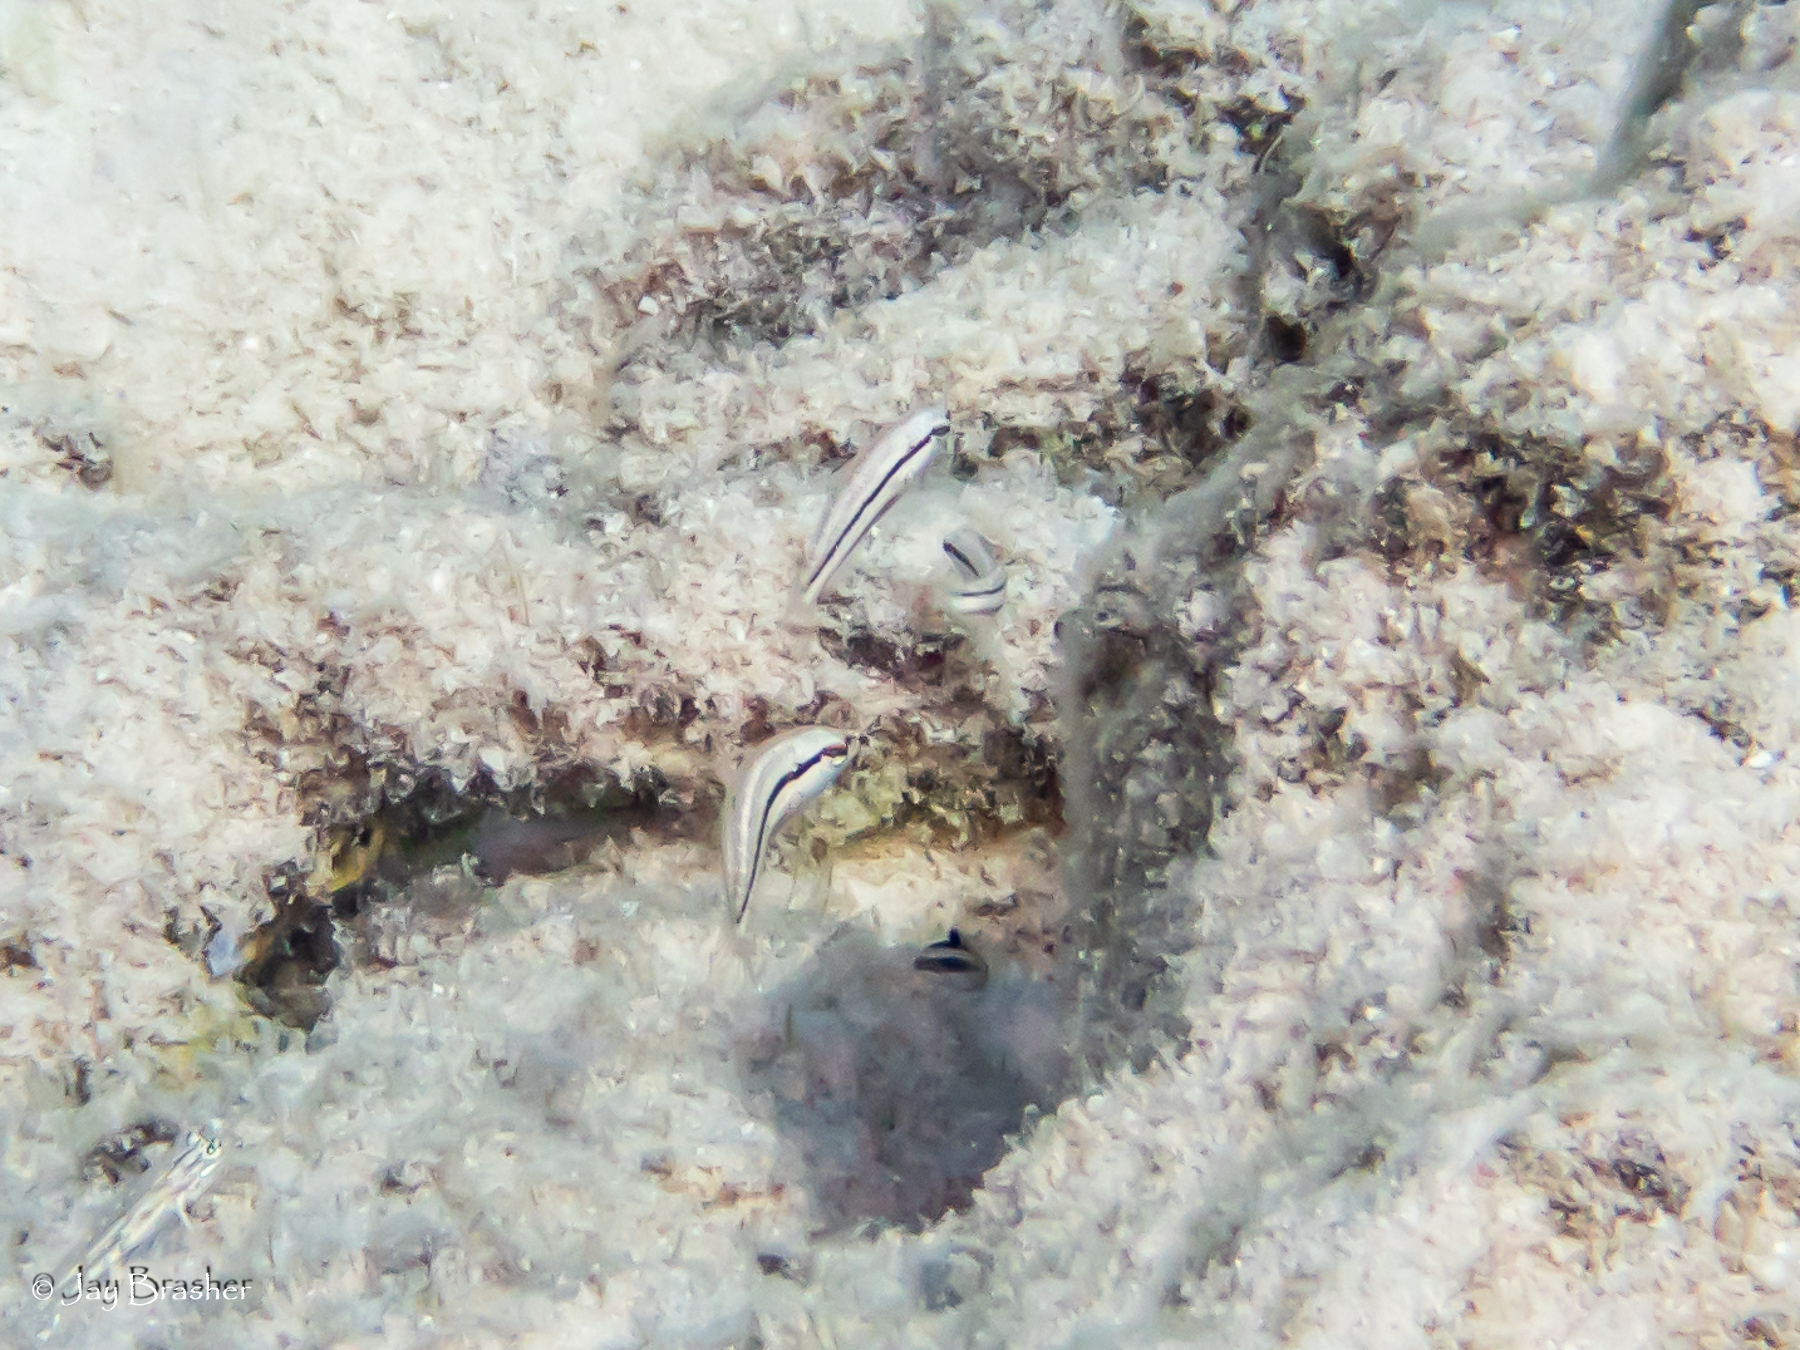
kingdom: Animalia
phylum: Chordata
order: Perciformes
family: Labridae
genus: Halichoeres
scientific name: Halichoeres bivittatus
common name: Slippery dick
